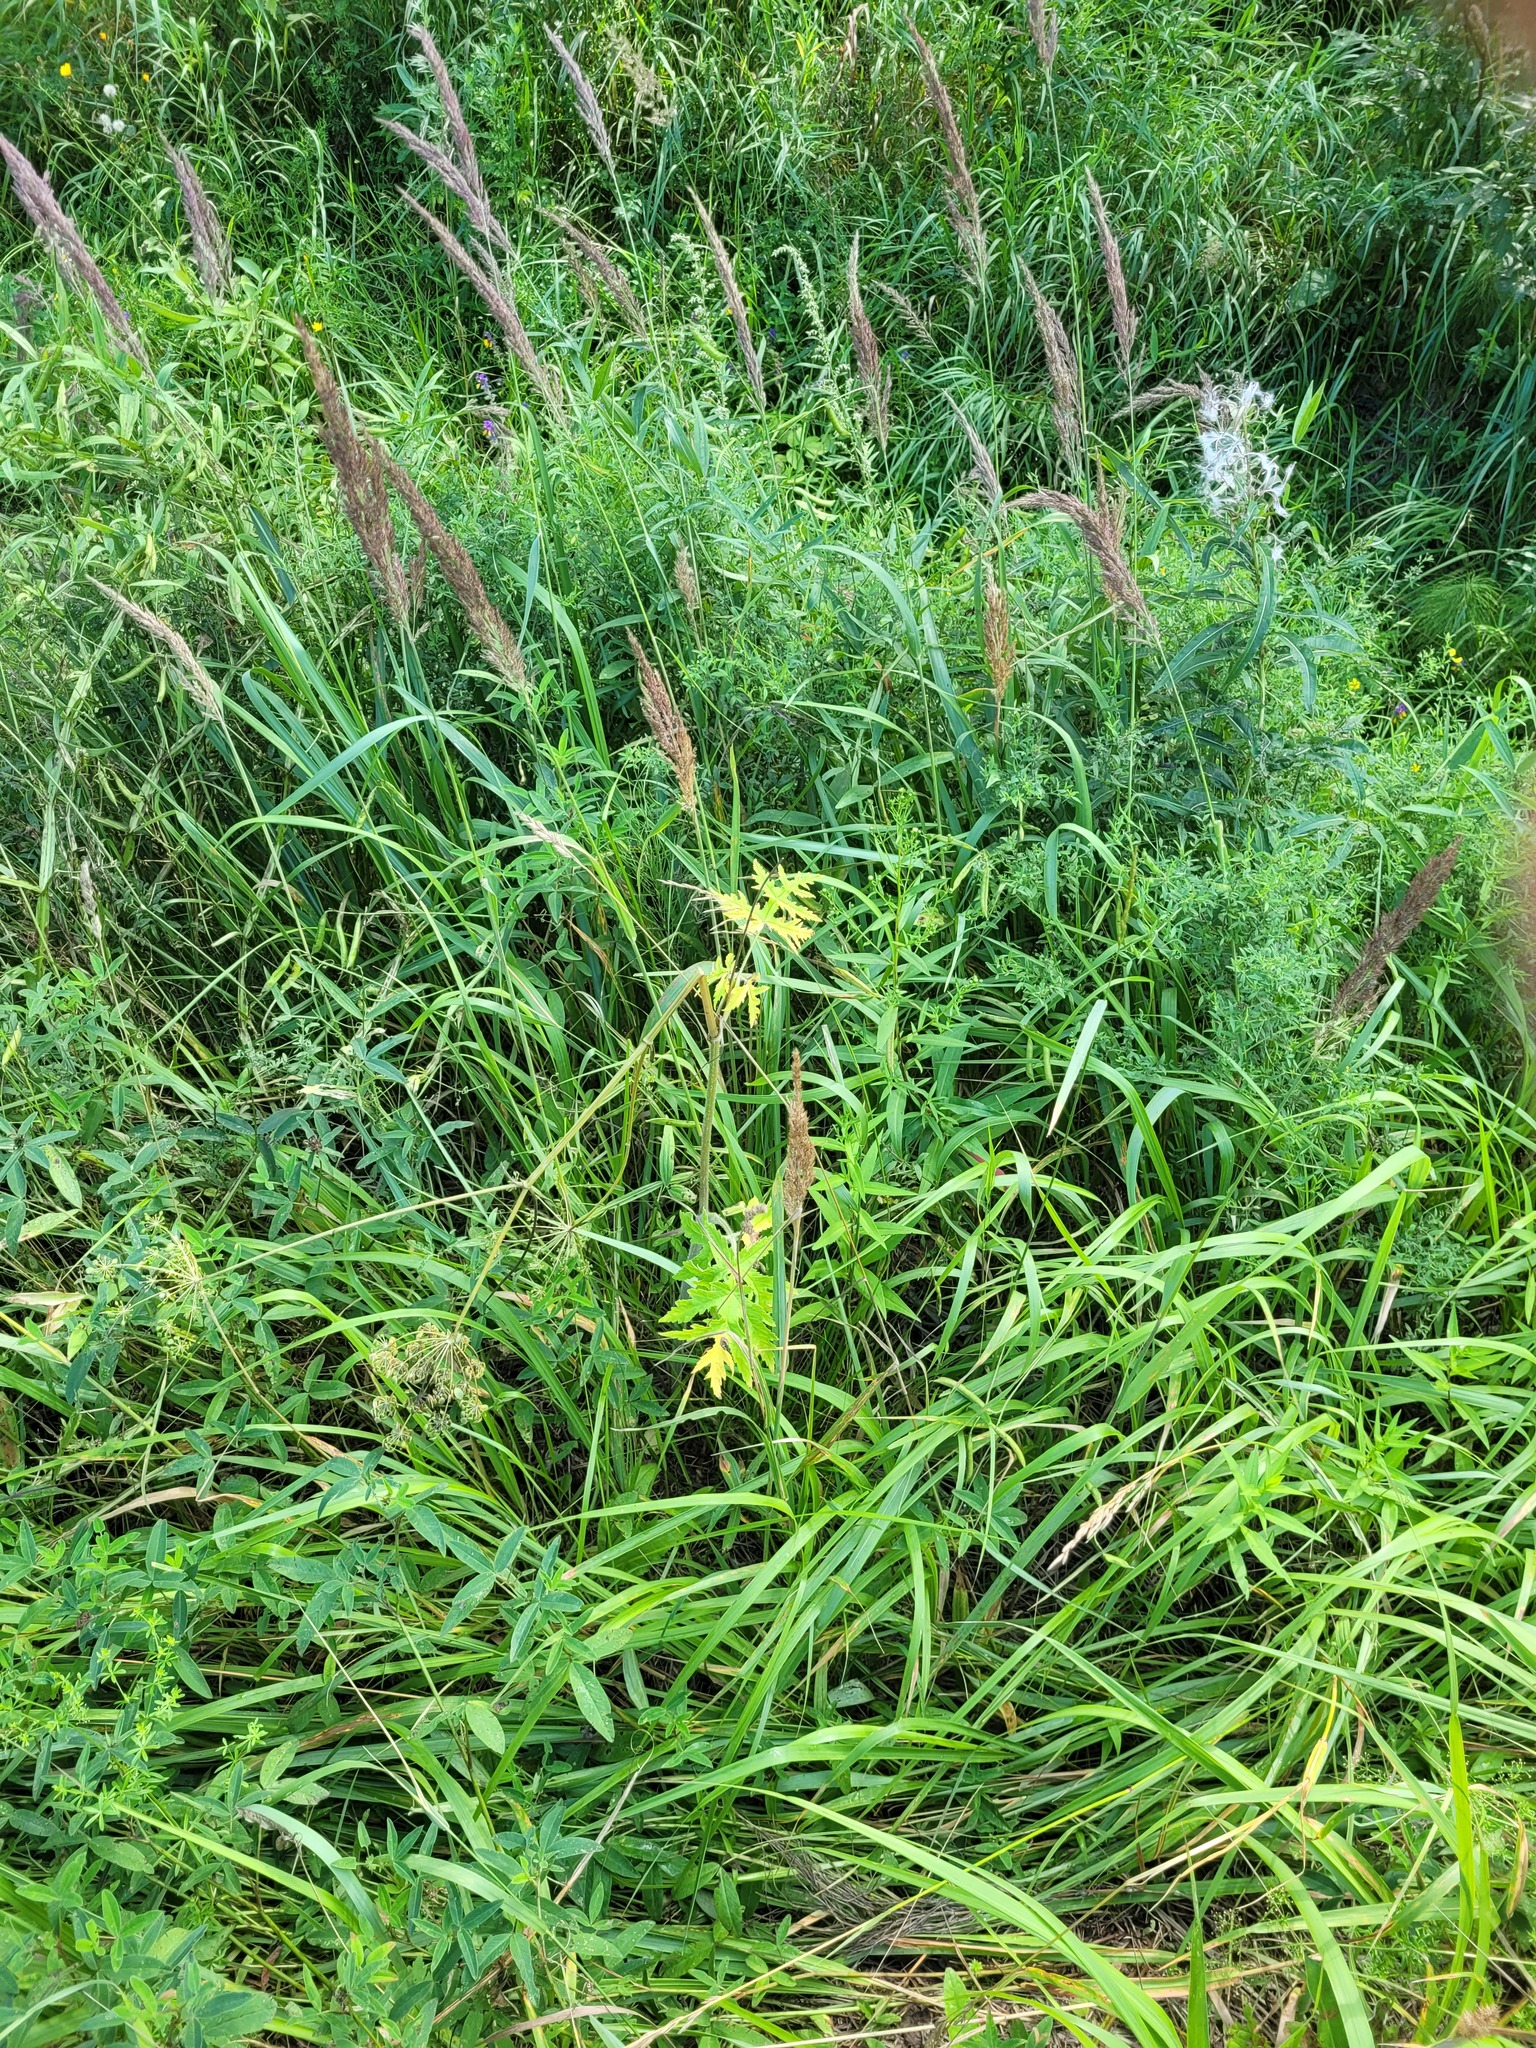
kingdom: Plantae
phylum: Tracheophyta
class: Magnoliopsida
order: Apiales
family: Apiaceae
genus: Heracleum
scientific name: Heracleum sphondylium
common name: Hogweed
